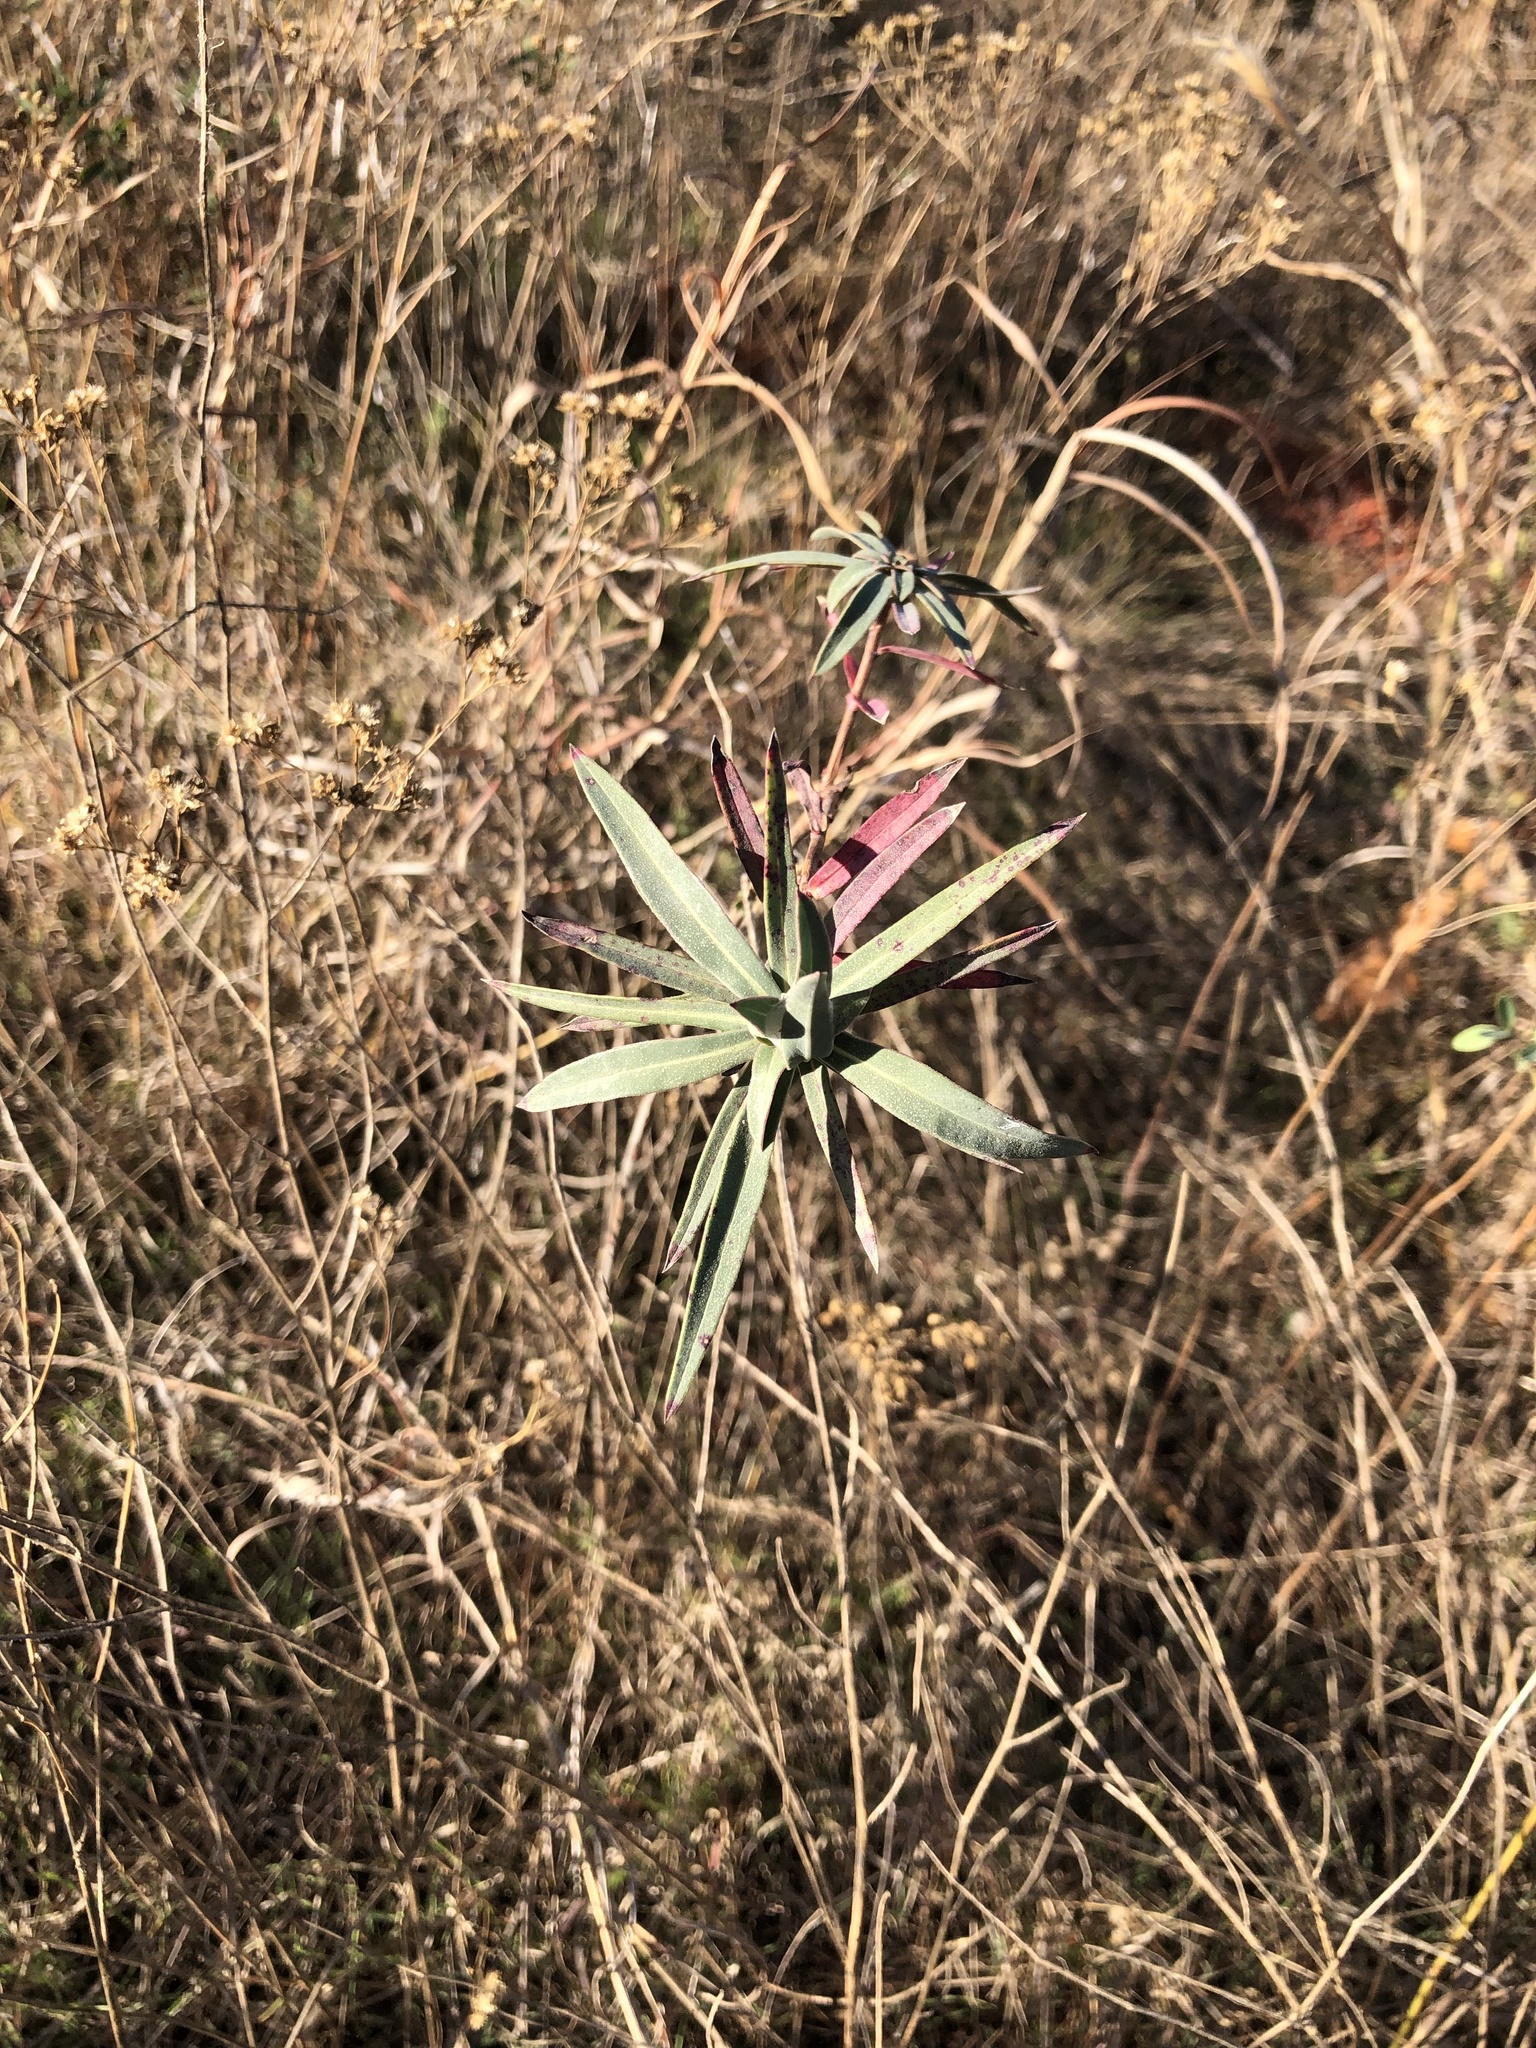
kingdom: Plantae
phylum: Tracheophyta
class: Magnoliopsida
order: Myrtales
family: Onagraceae
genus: Oenothera
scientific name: Oenothera glaucifolia
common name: False gaura
